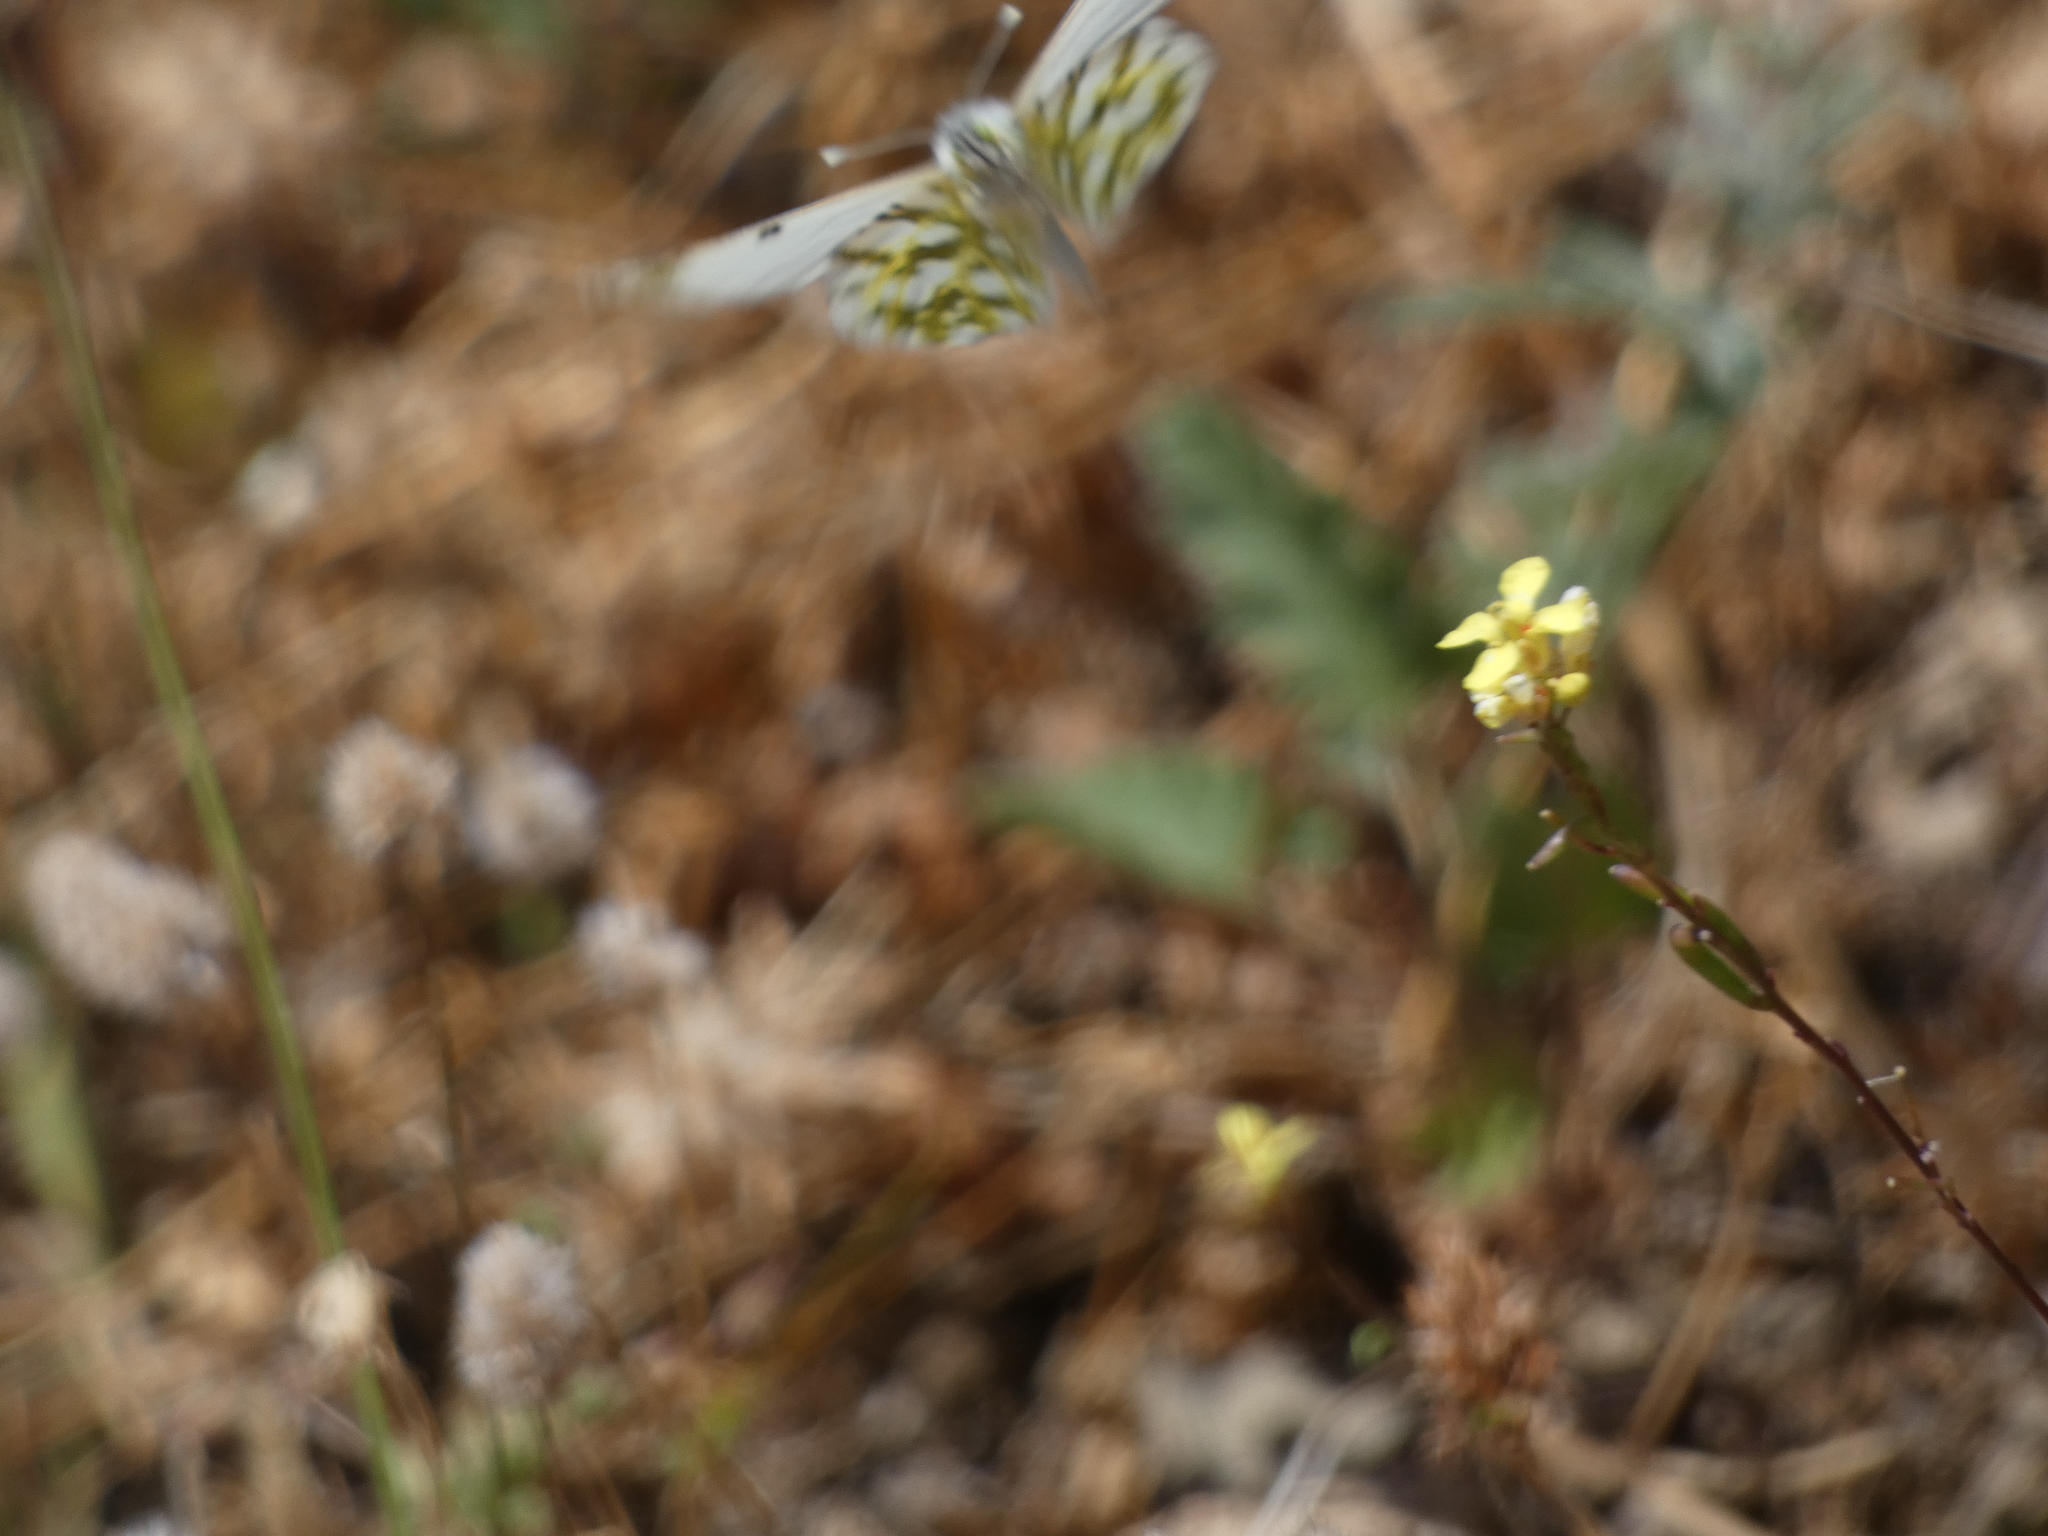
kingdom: Animalia
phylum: Arthropoda
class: Insecta
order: Lepidoptera
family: Pieridae
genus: Euchloe
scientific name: Euchloe ausonia
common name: Eastern dappled white
